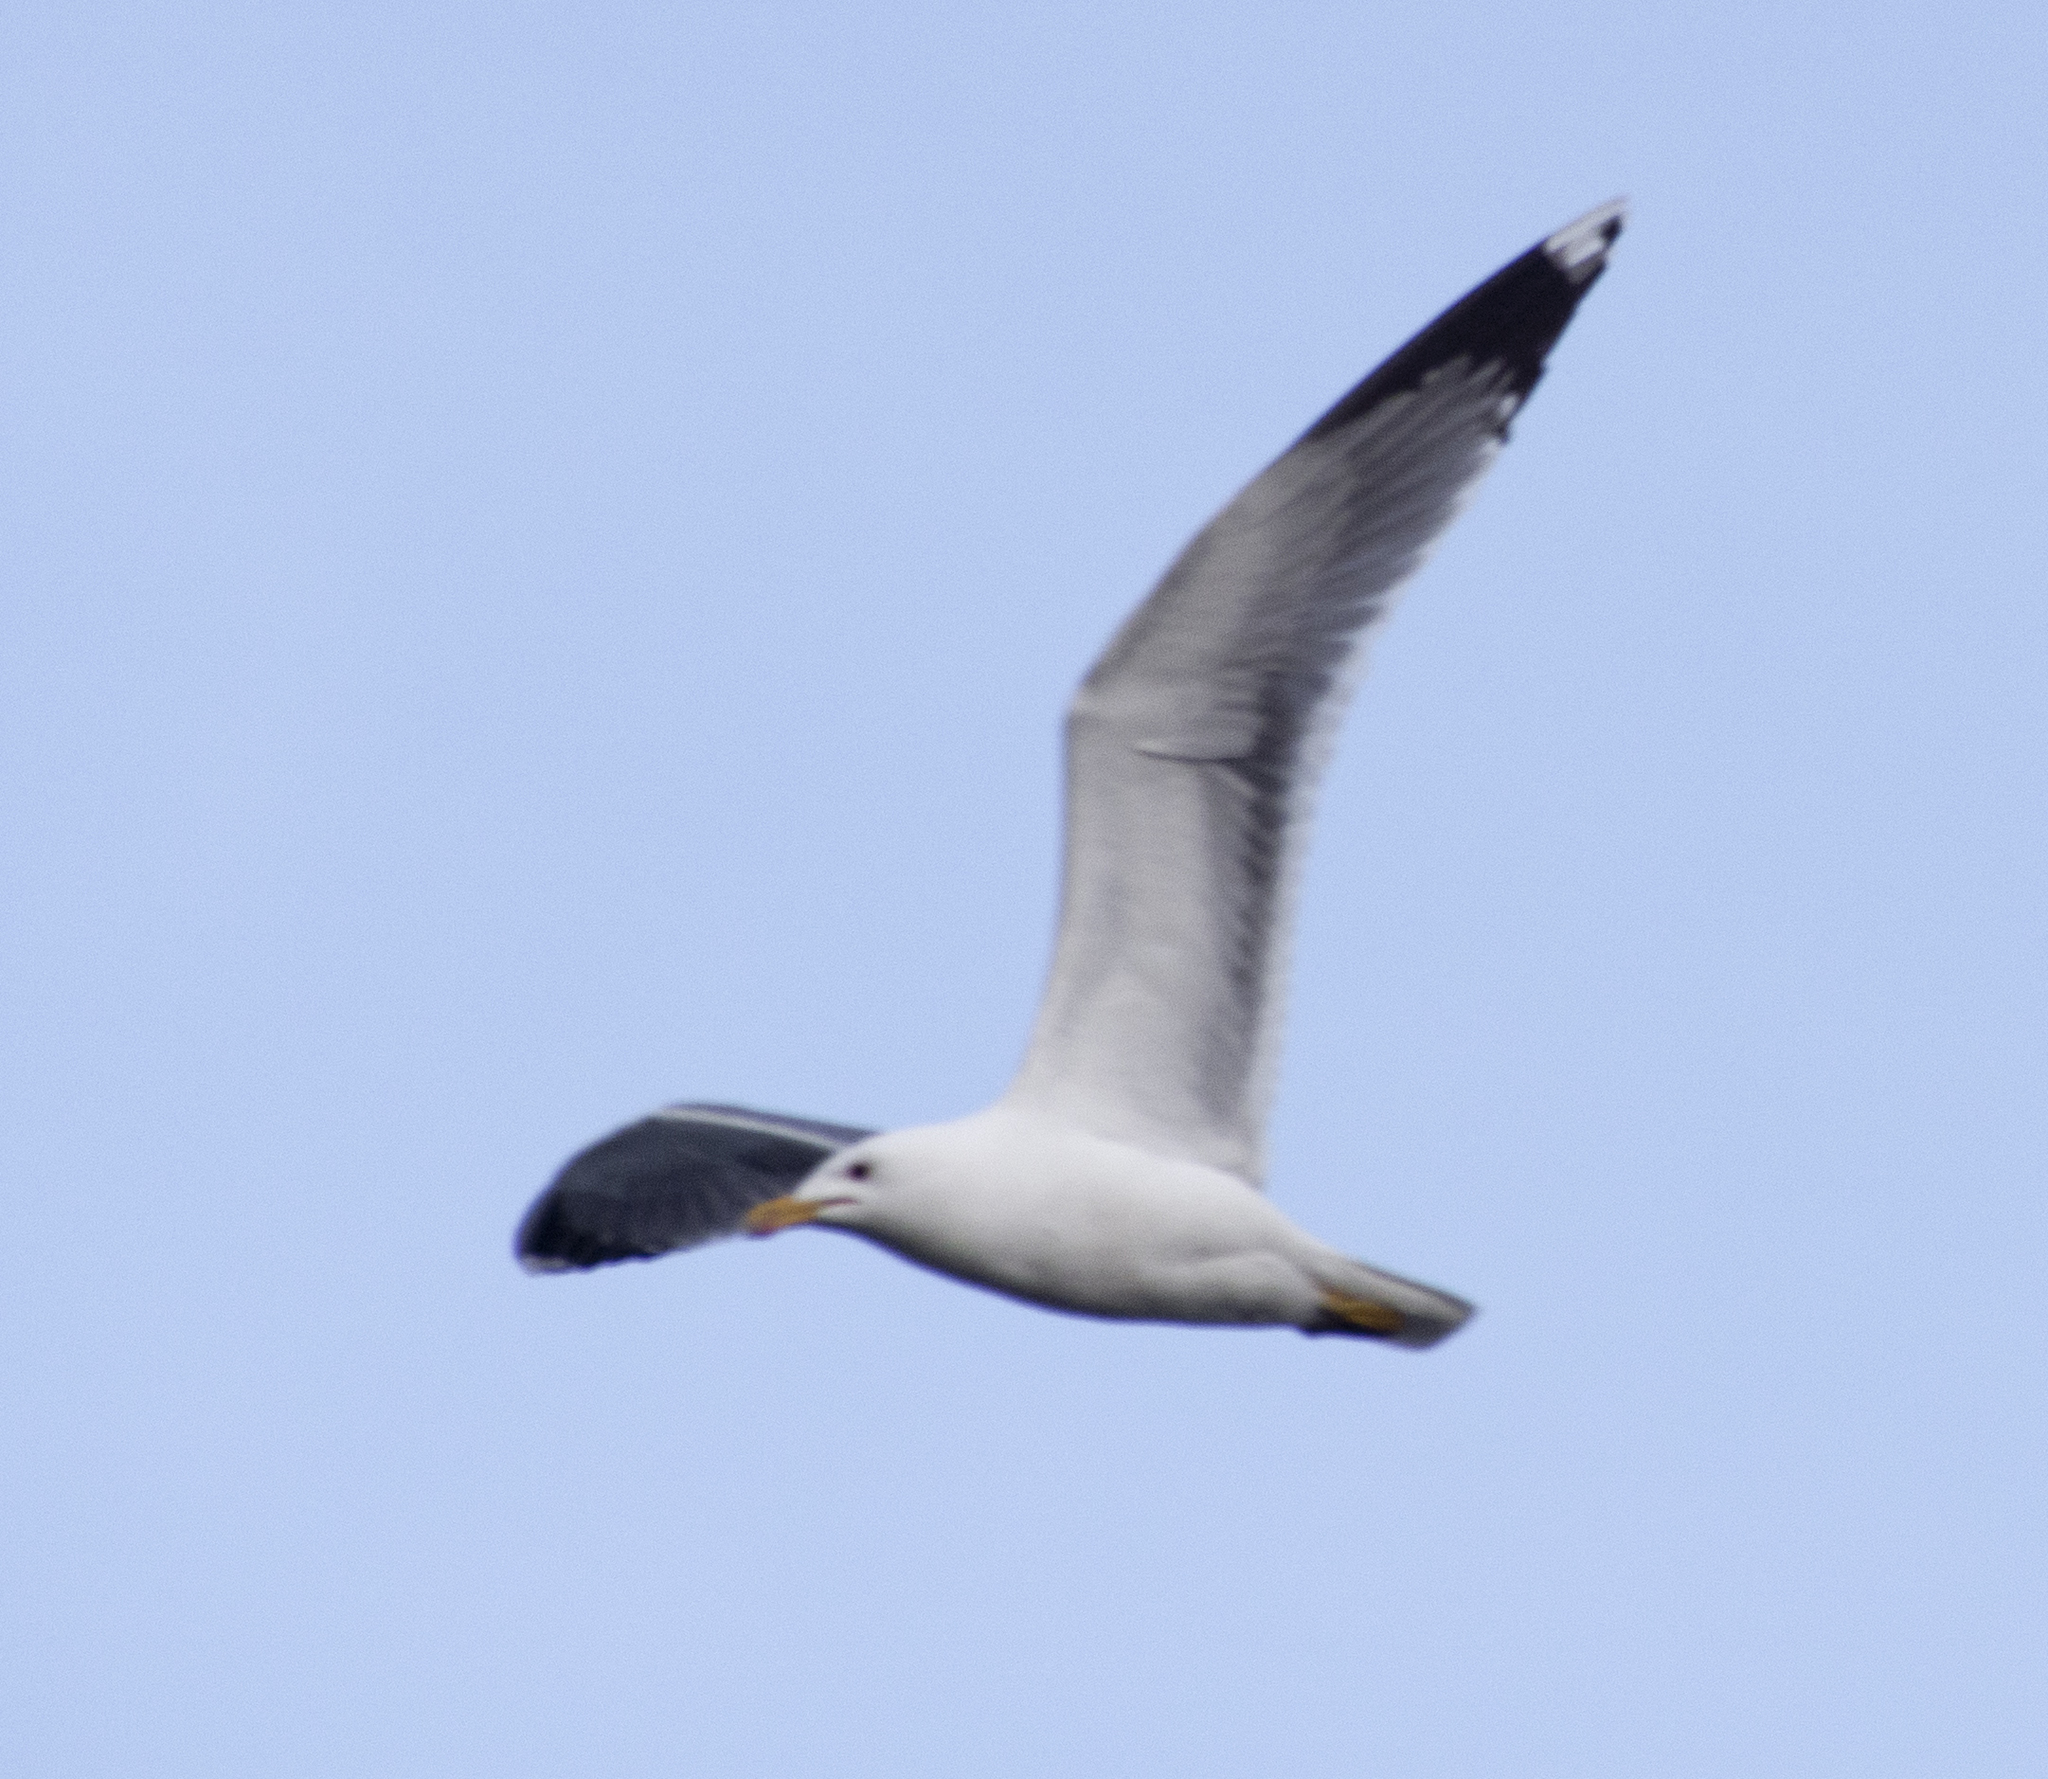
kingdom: Animalia
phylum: Chordata
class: Aves
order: Charadriiformes
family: Laridae
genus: Larus
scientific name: Larus californicus
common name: California gull
